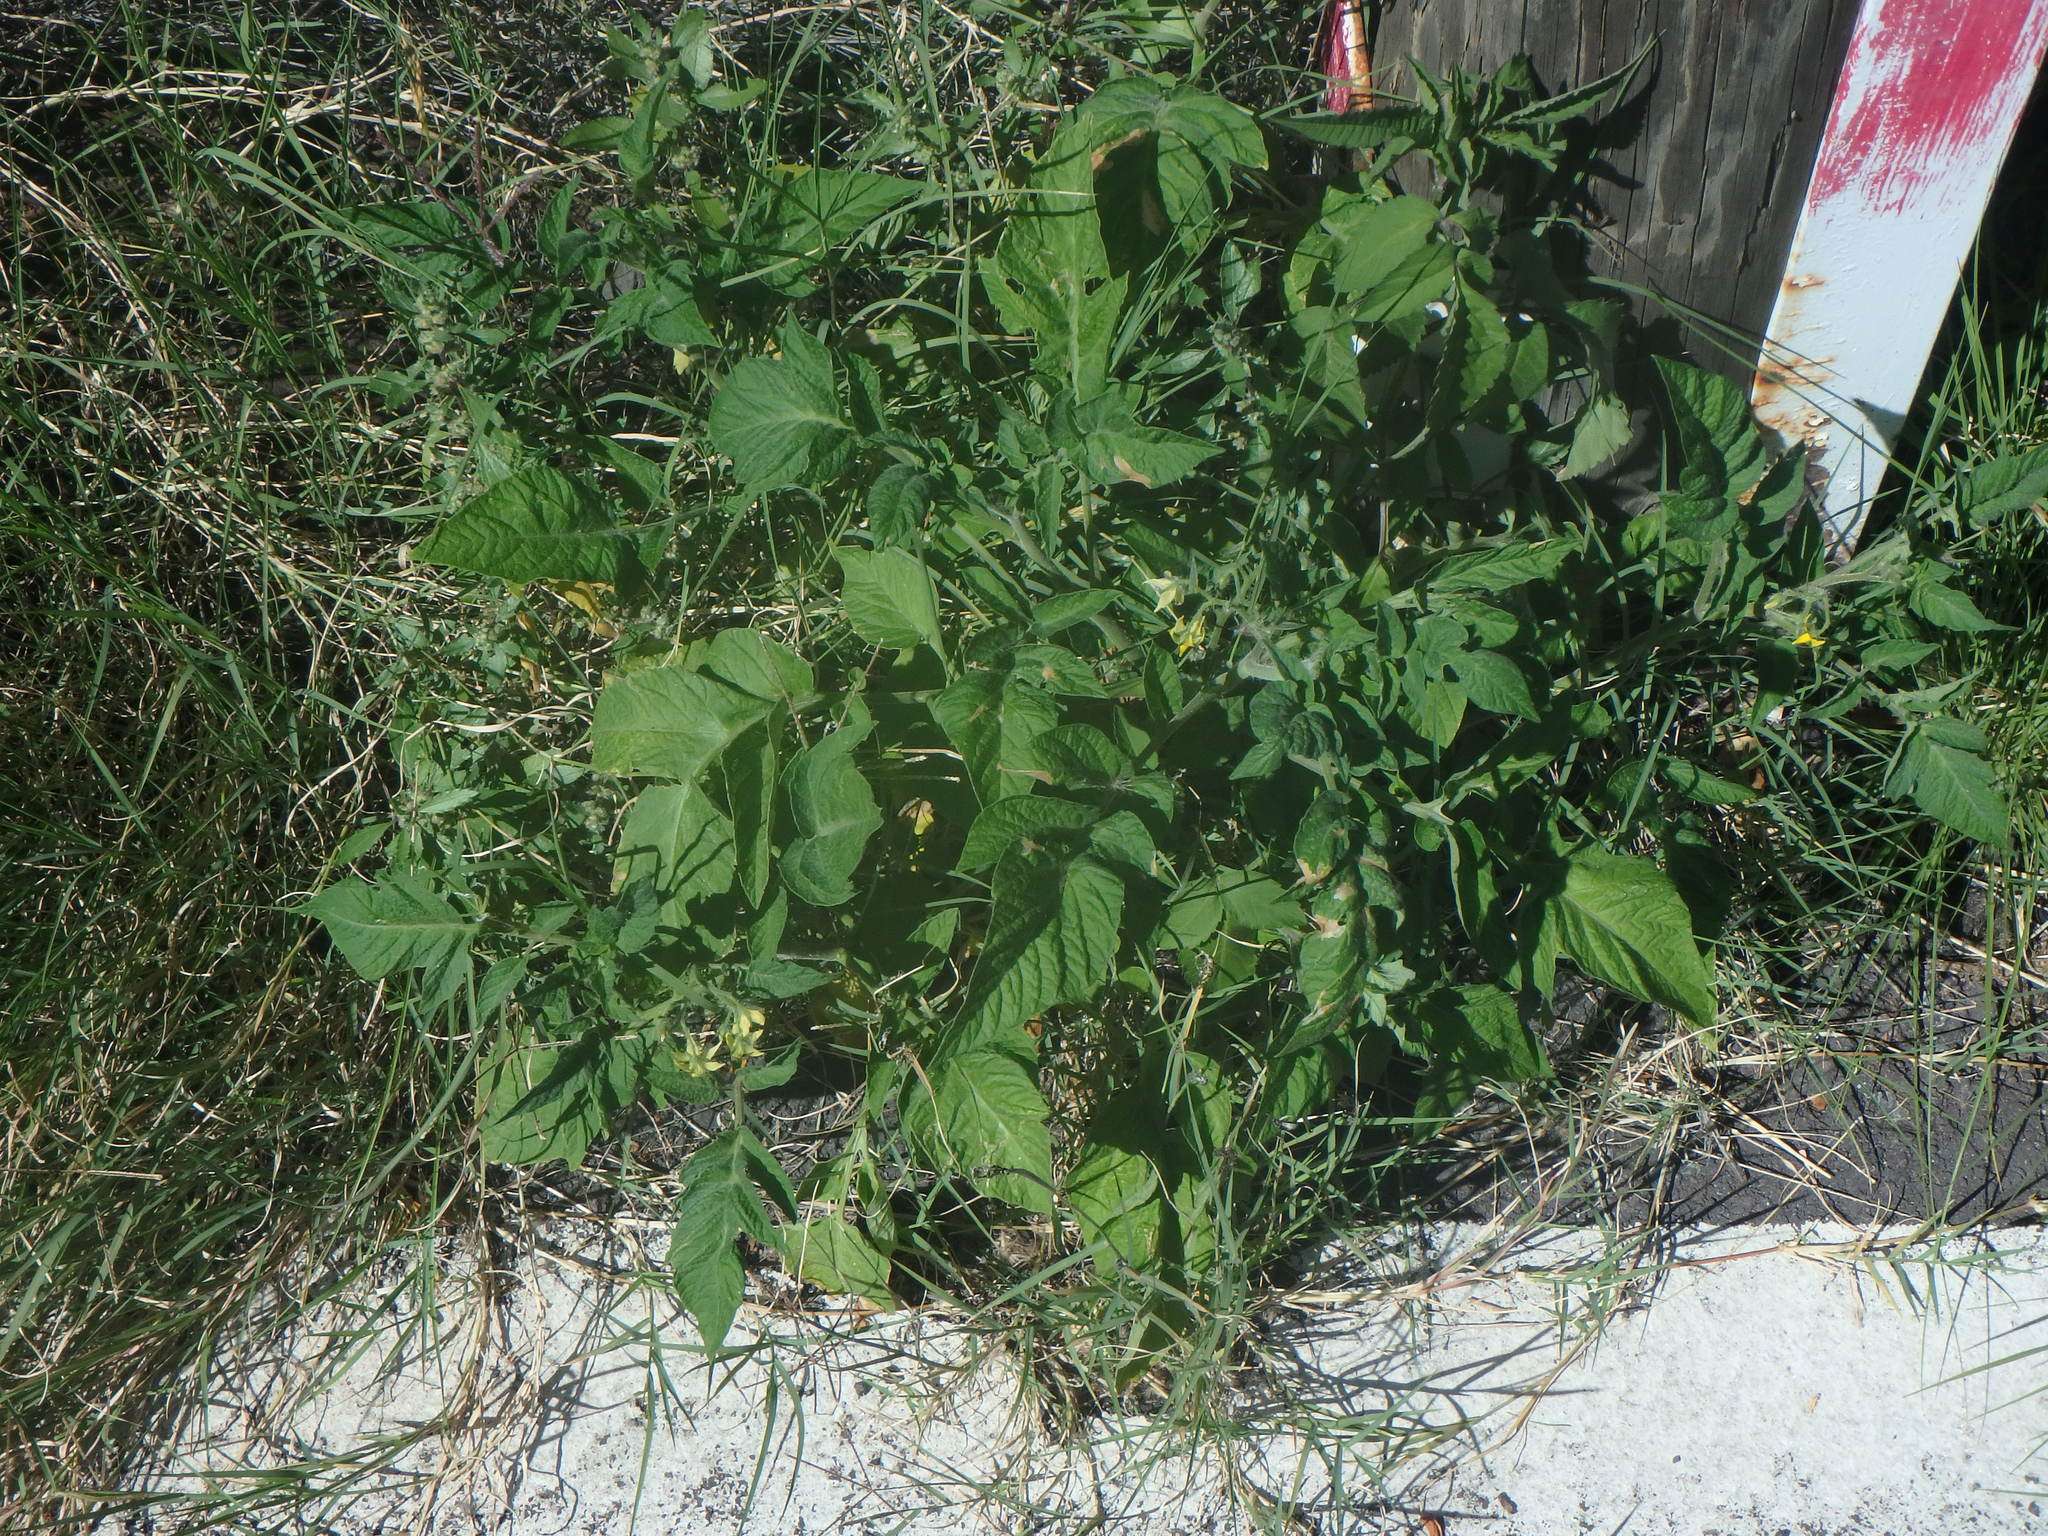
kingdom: Plantae
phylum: Tracheophyta
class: Magnoliopsida
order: Solanales
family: Solanaceae
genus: Solanum
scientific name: Solanum lycopersicum
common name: Garden tomato
